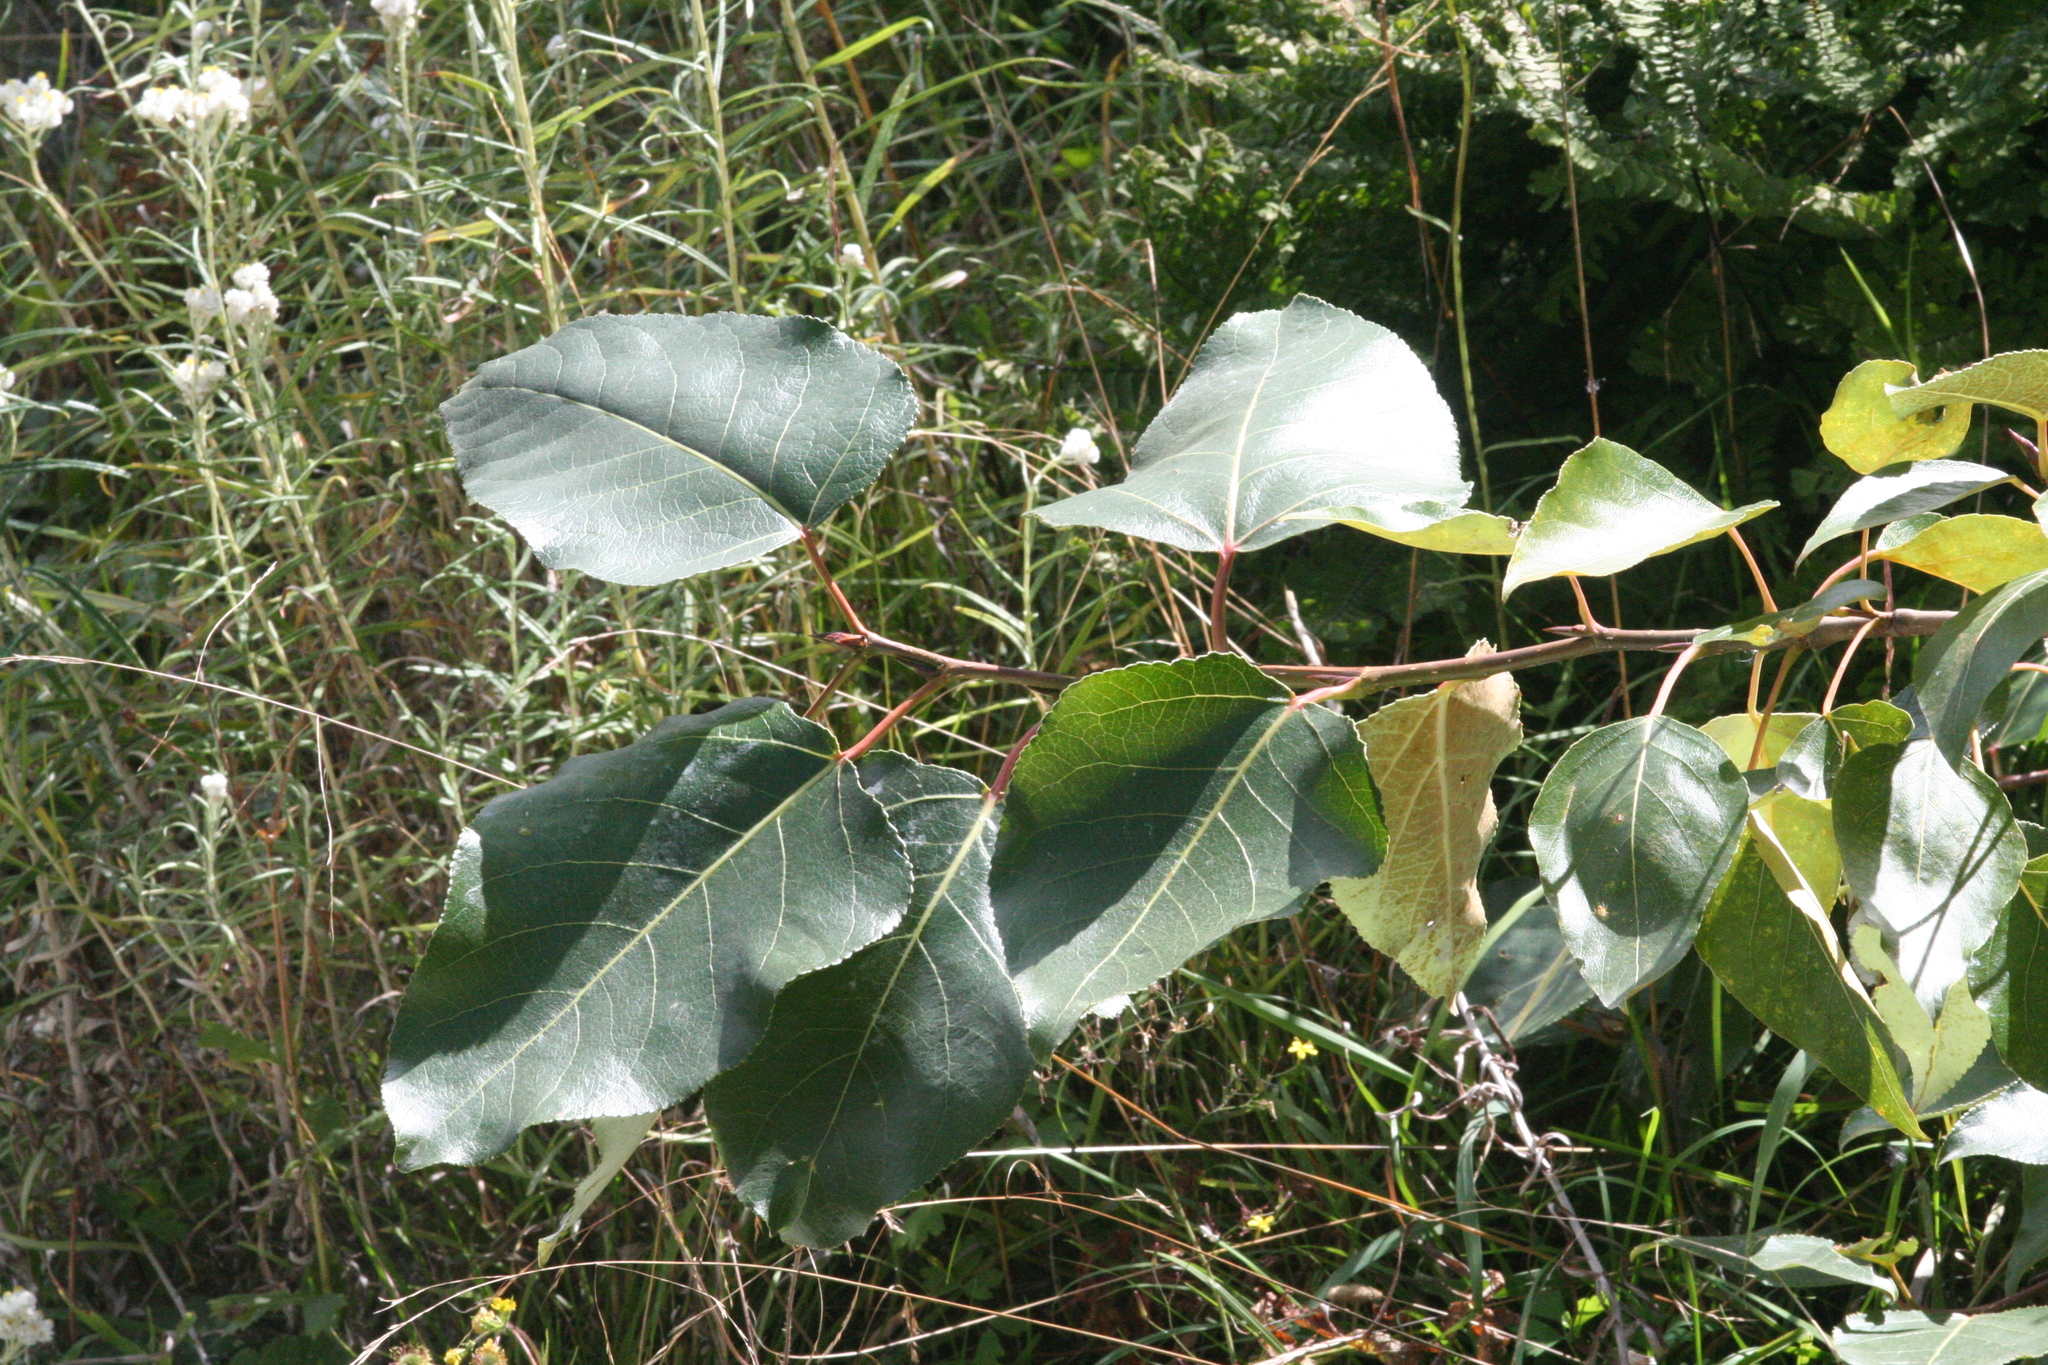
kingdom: Plantae
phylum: Tracheophyta
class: Magnoliopsida
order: Malpighiales
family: Salicaceae
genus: Populus
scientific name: Populus trichocarpa
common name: Black cottonwood
